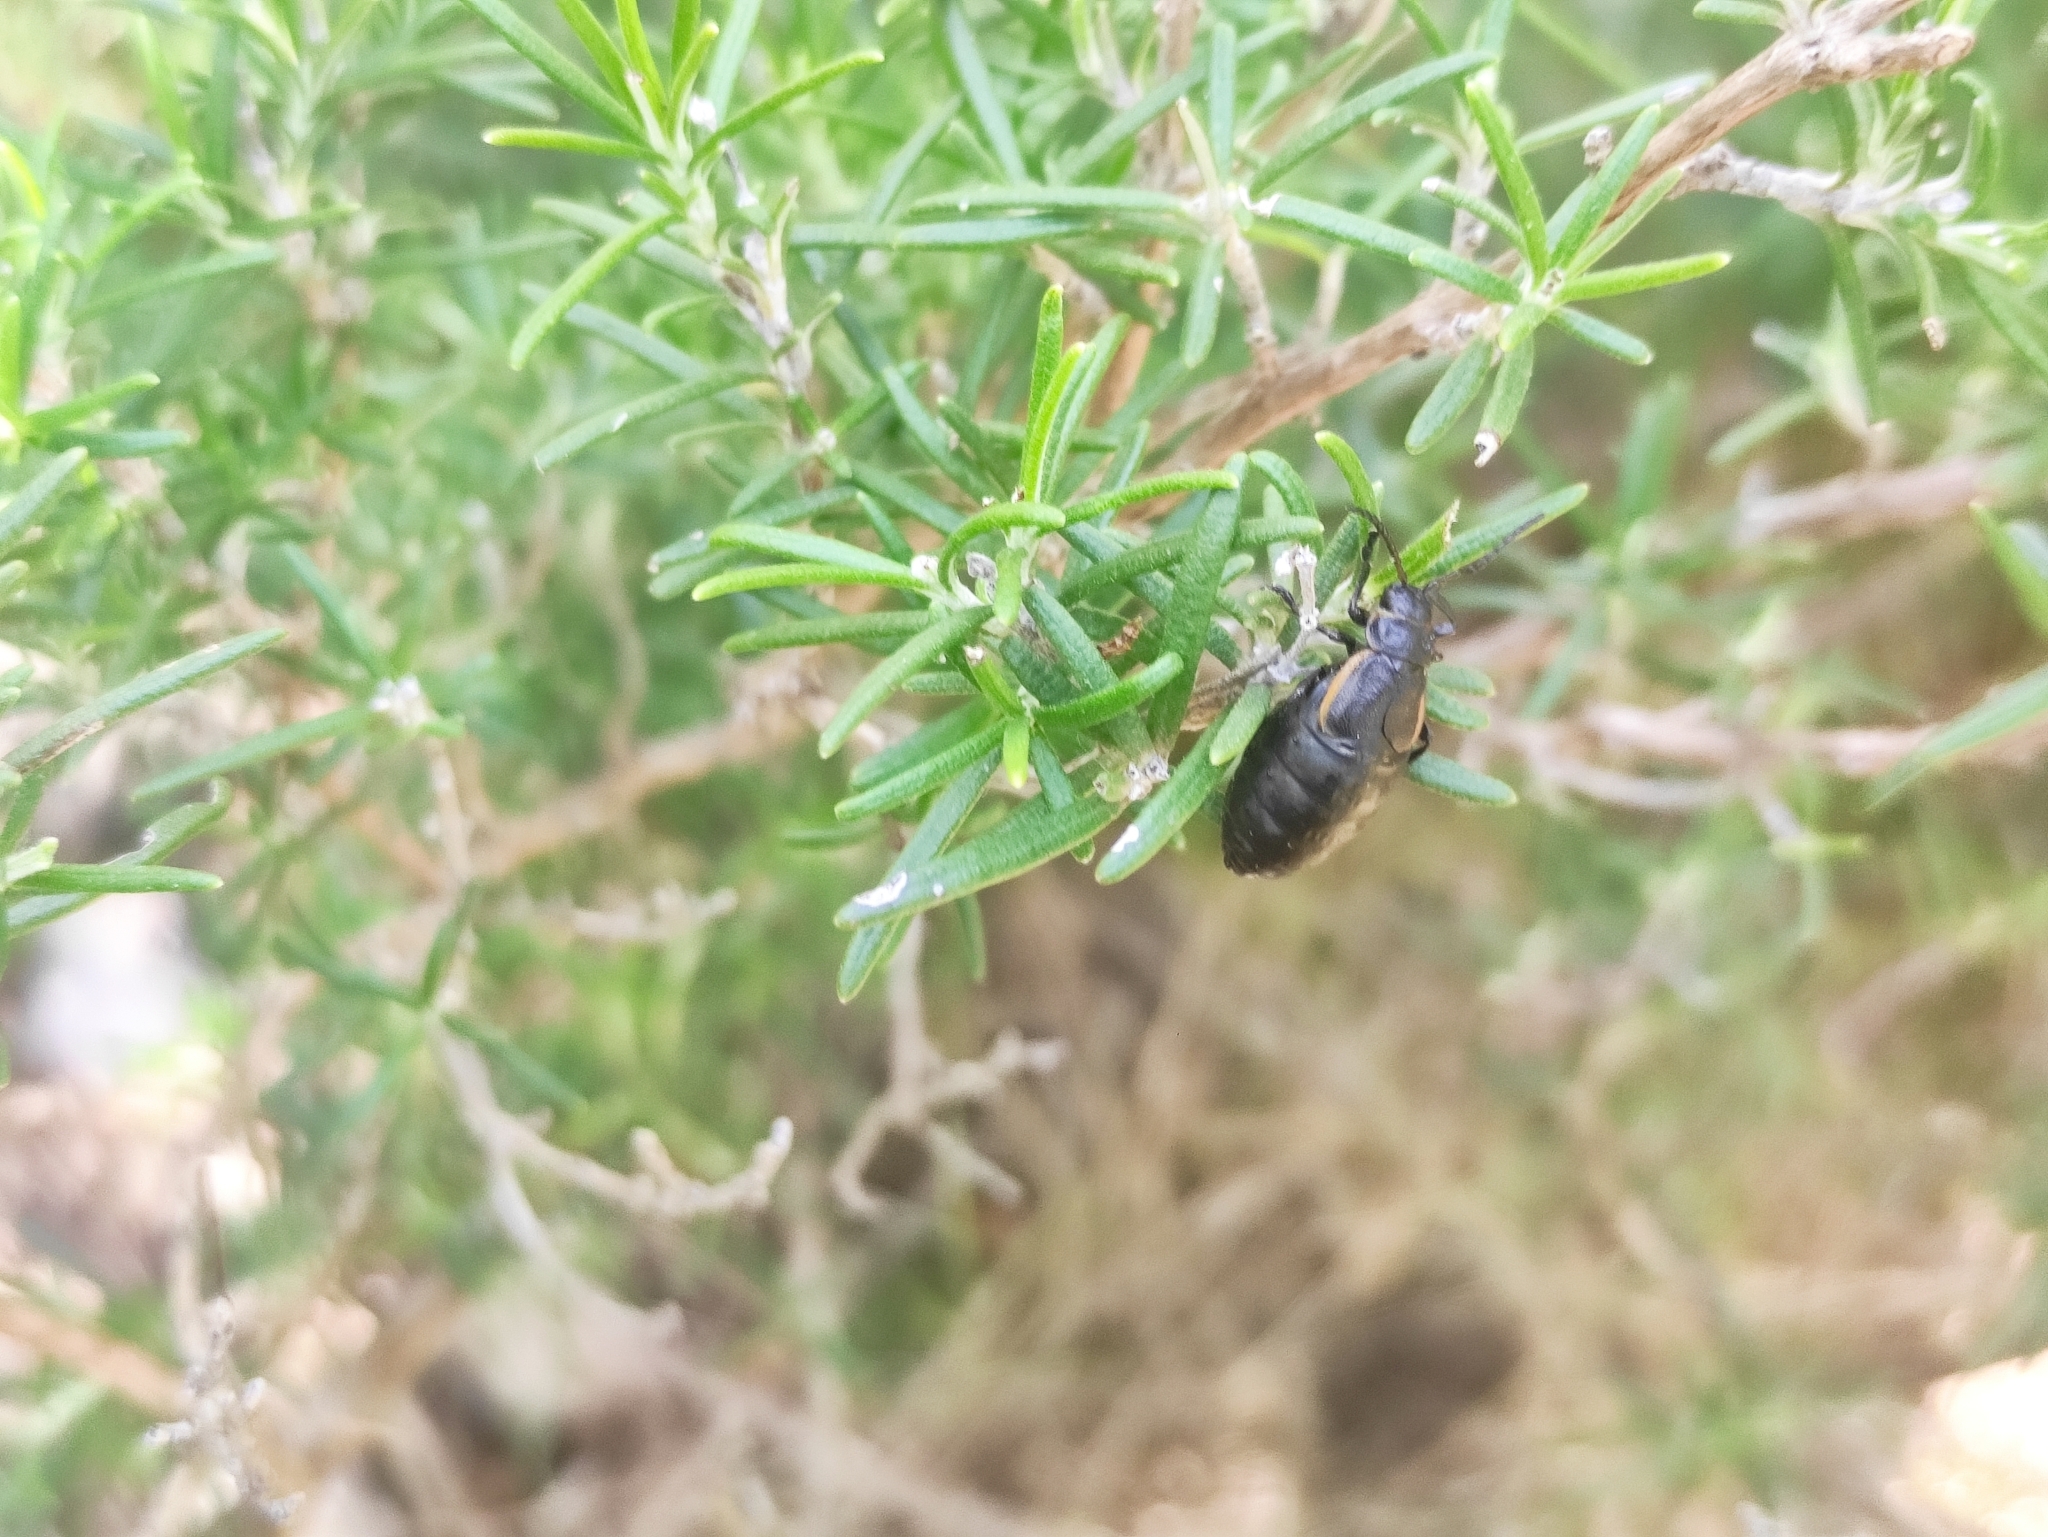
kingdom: Animalia
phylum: Arthropoda
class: Insecta
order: Coleoptera
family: Chrysomelidae
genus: Arima
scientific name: Arima marginata
